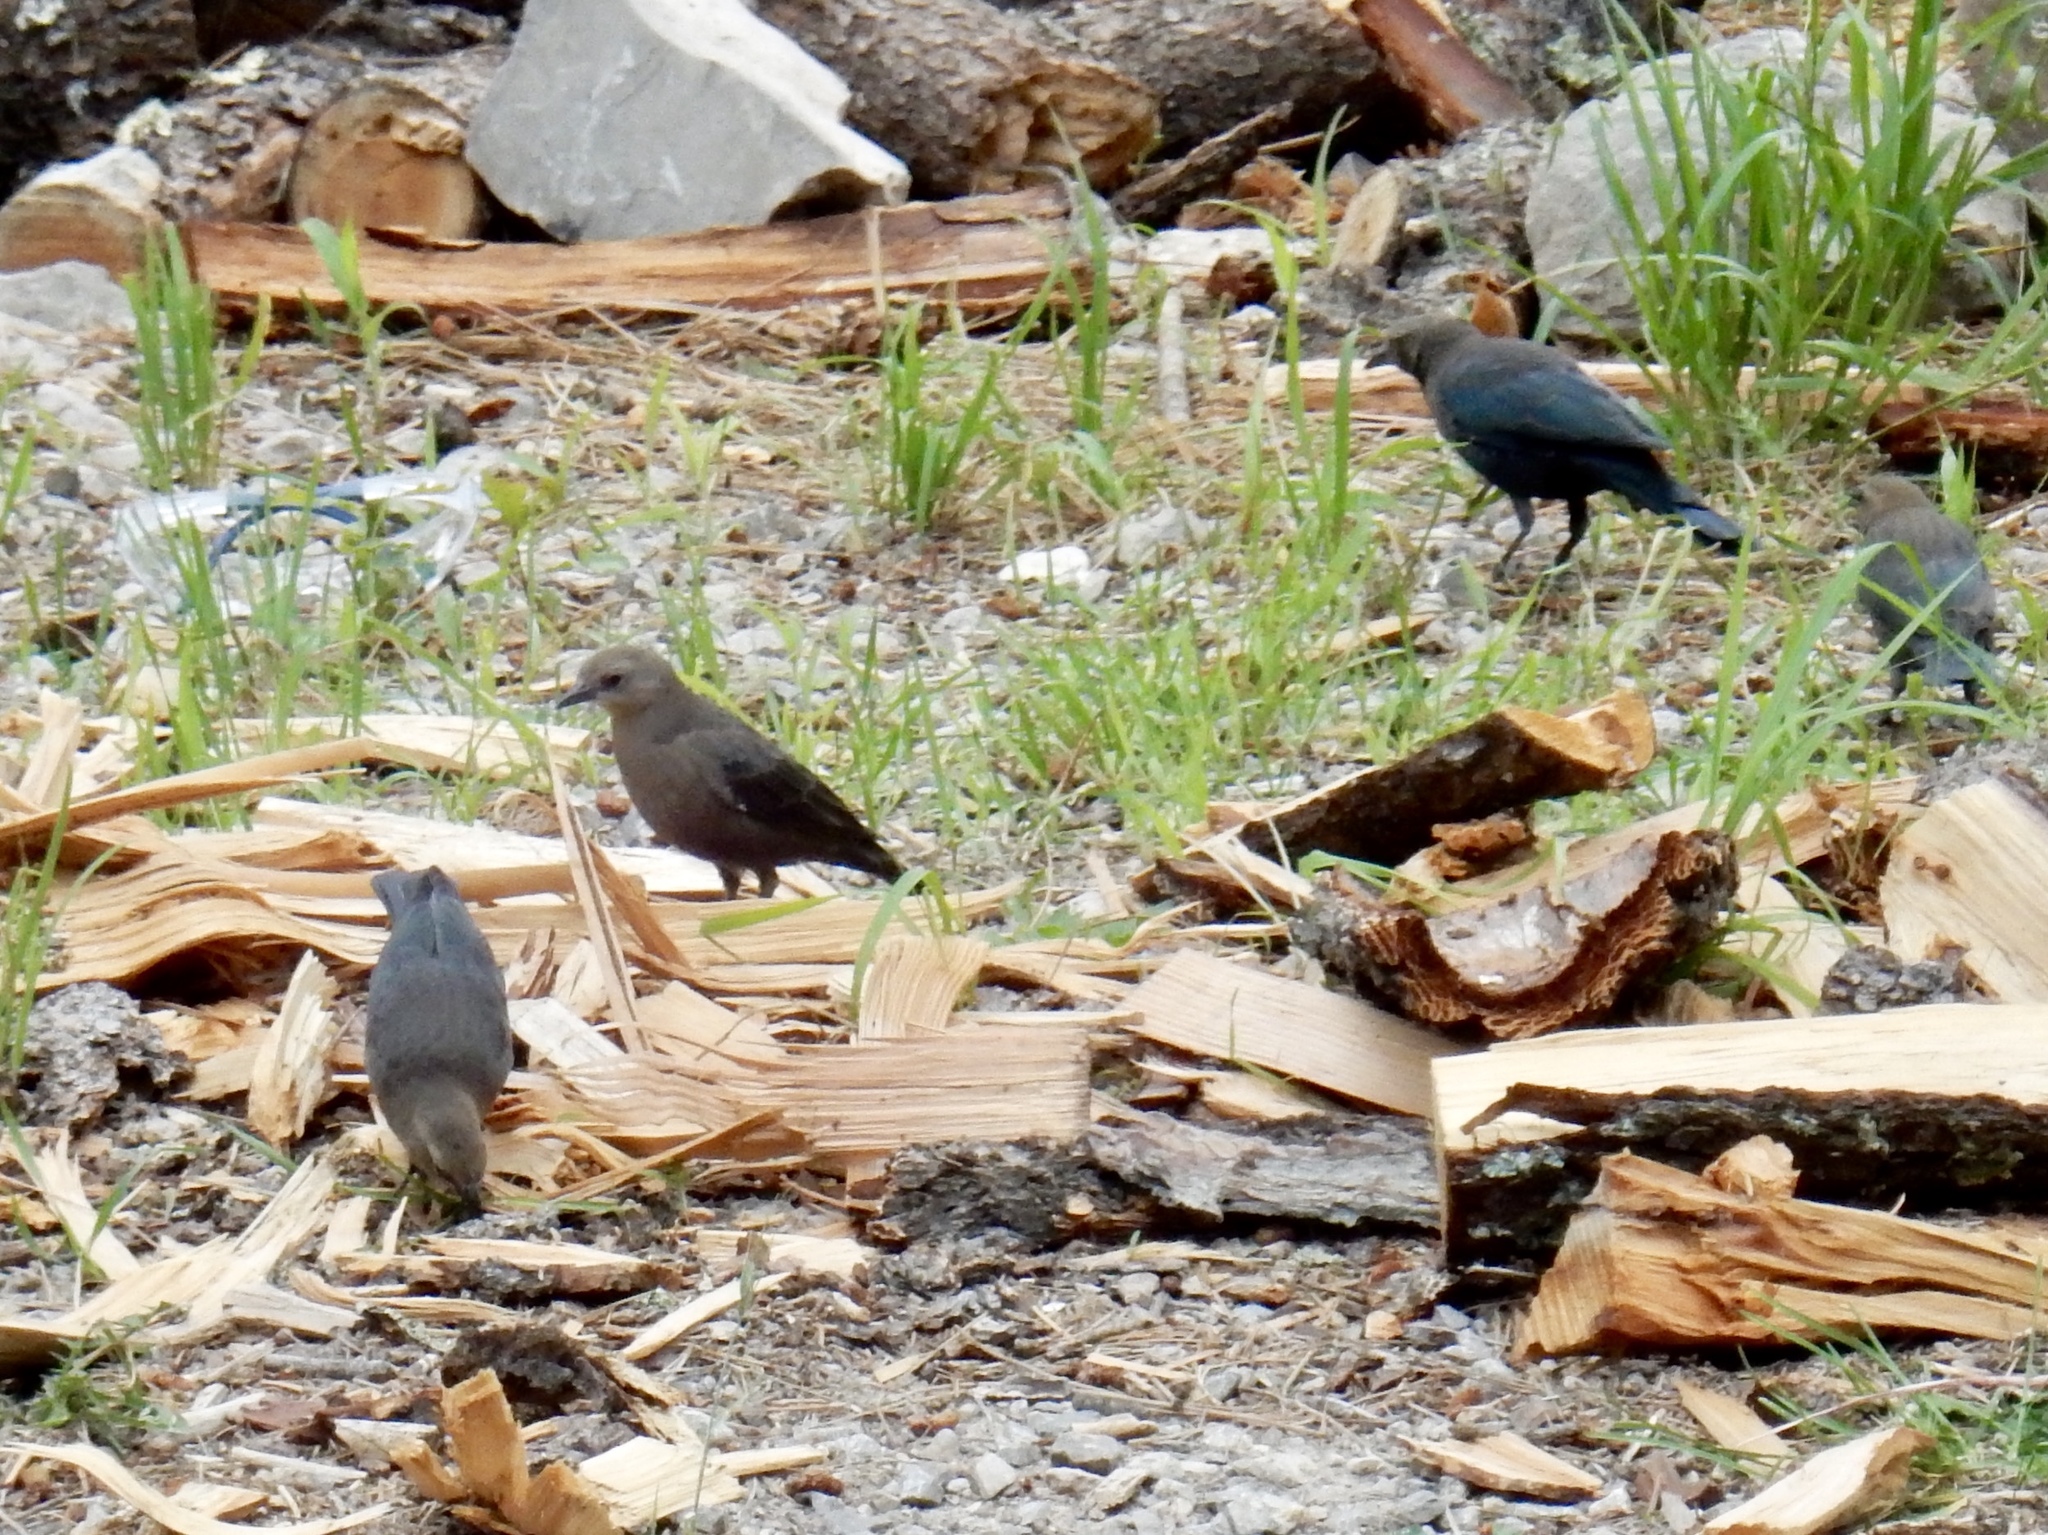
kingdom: Animalia
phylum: Chordata
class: Aves
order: Passeriformes
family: Icteridae
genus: Euphagus
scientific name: Euphagus cyanocephalus
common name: Brewer's blackbird
